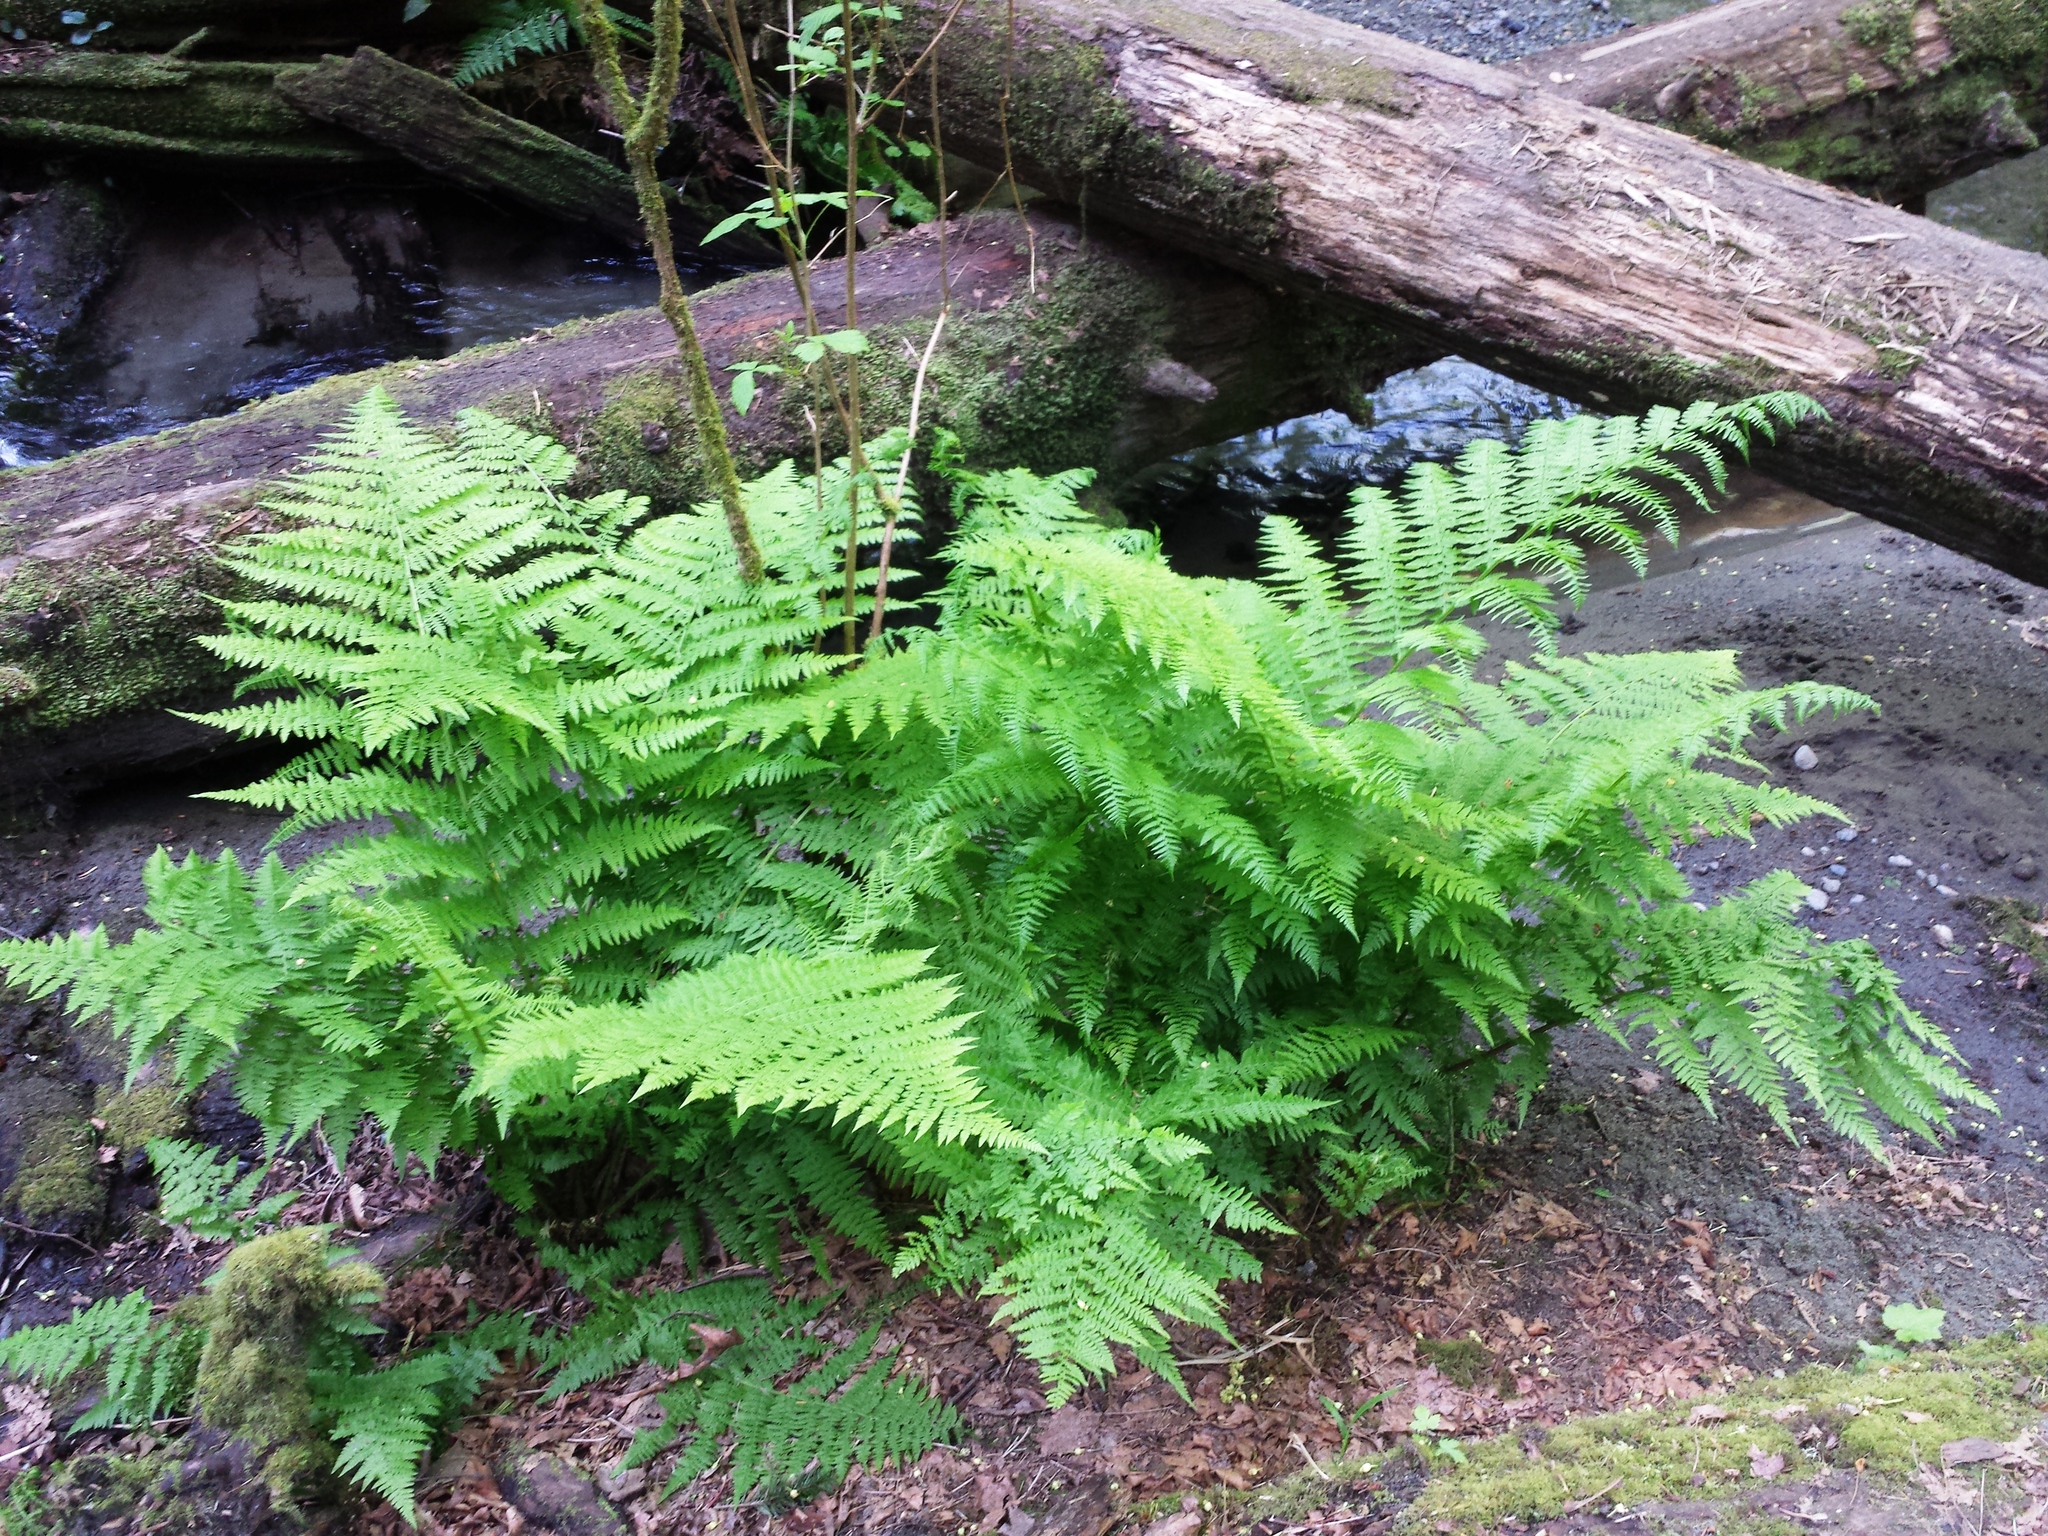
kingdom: Plantae
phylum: Tracheophyta
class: Polypodiopsida
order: Polypodiales
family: Athyriaceae
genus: Athyrium
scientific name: Athyrium filix-femina
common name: Lady fern
